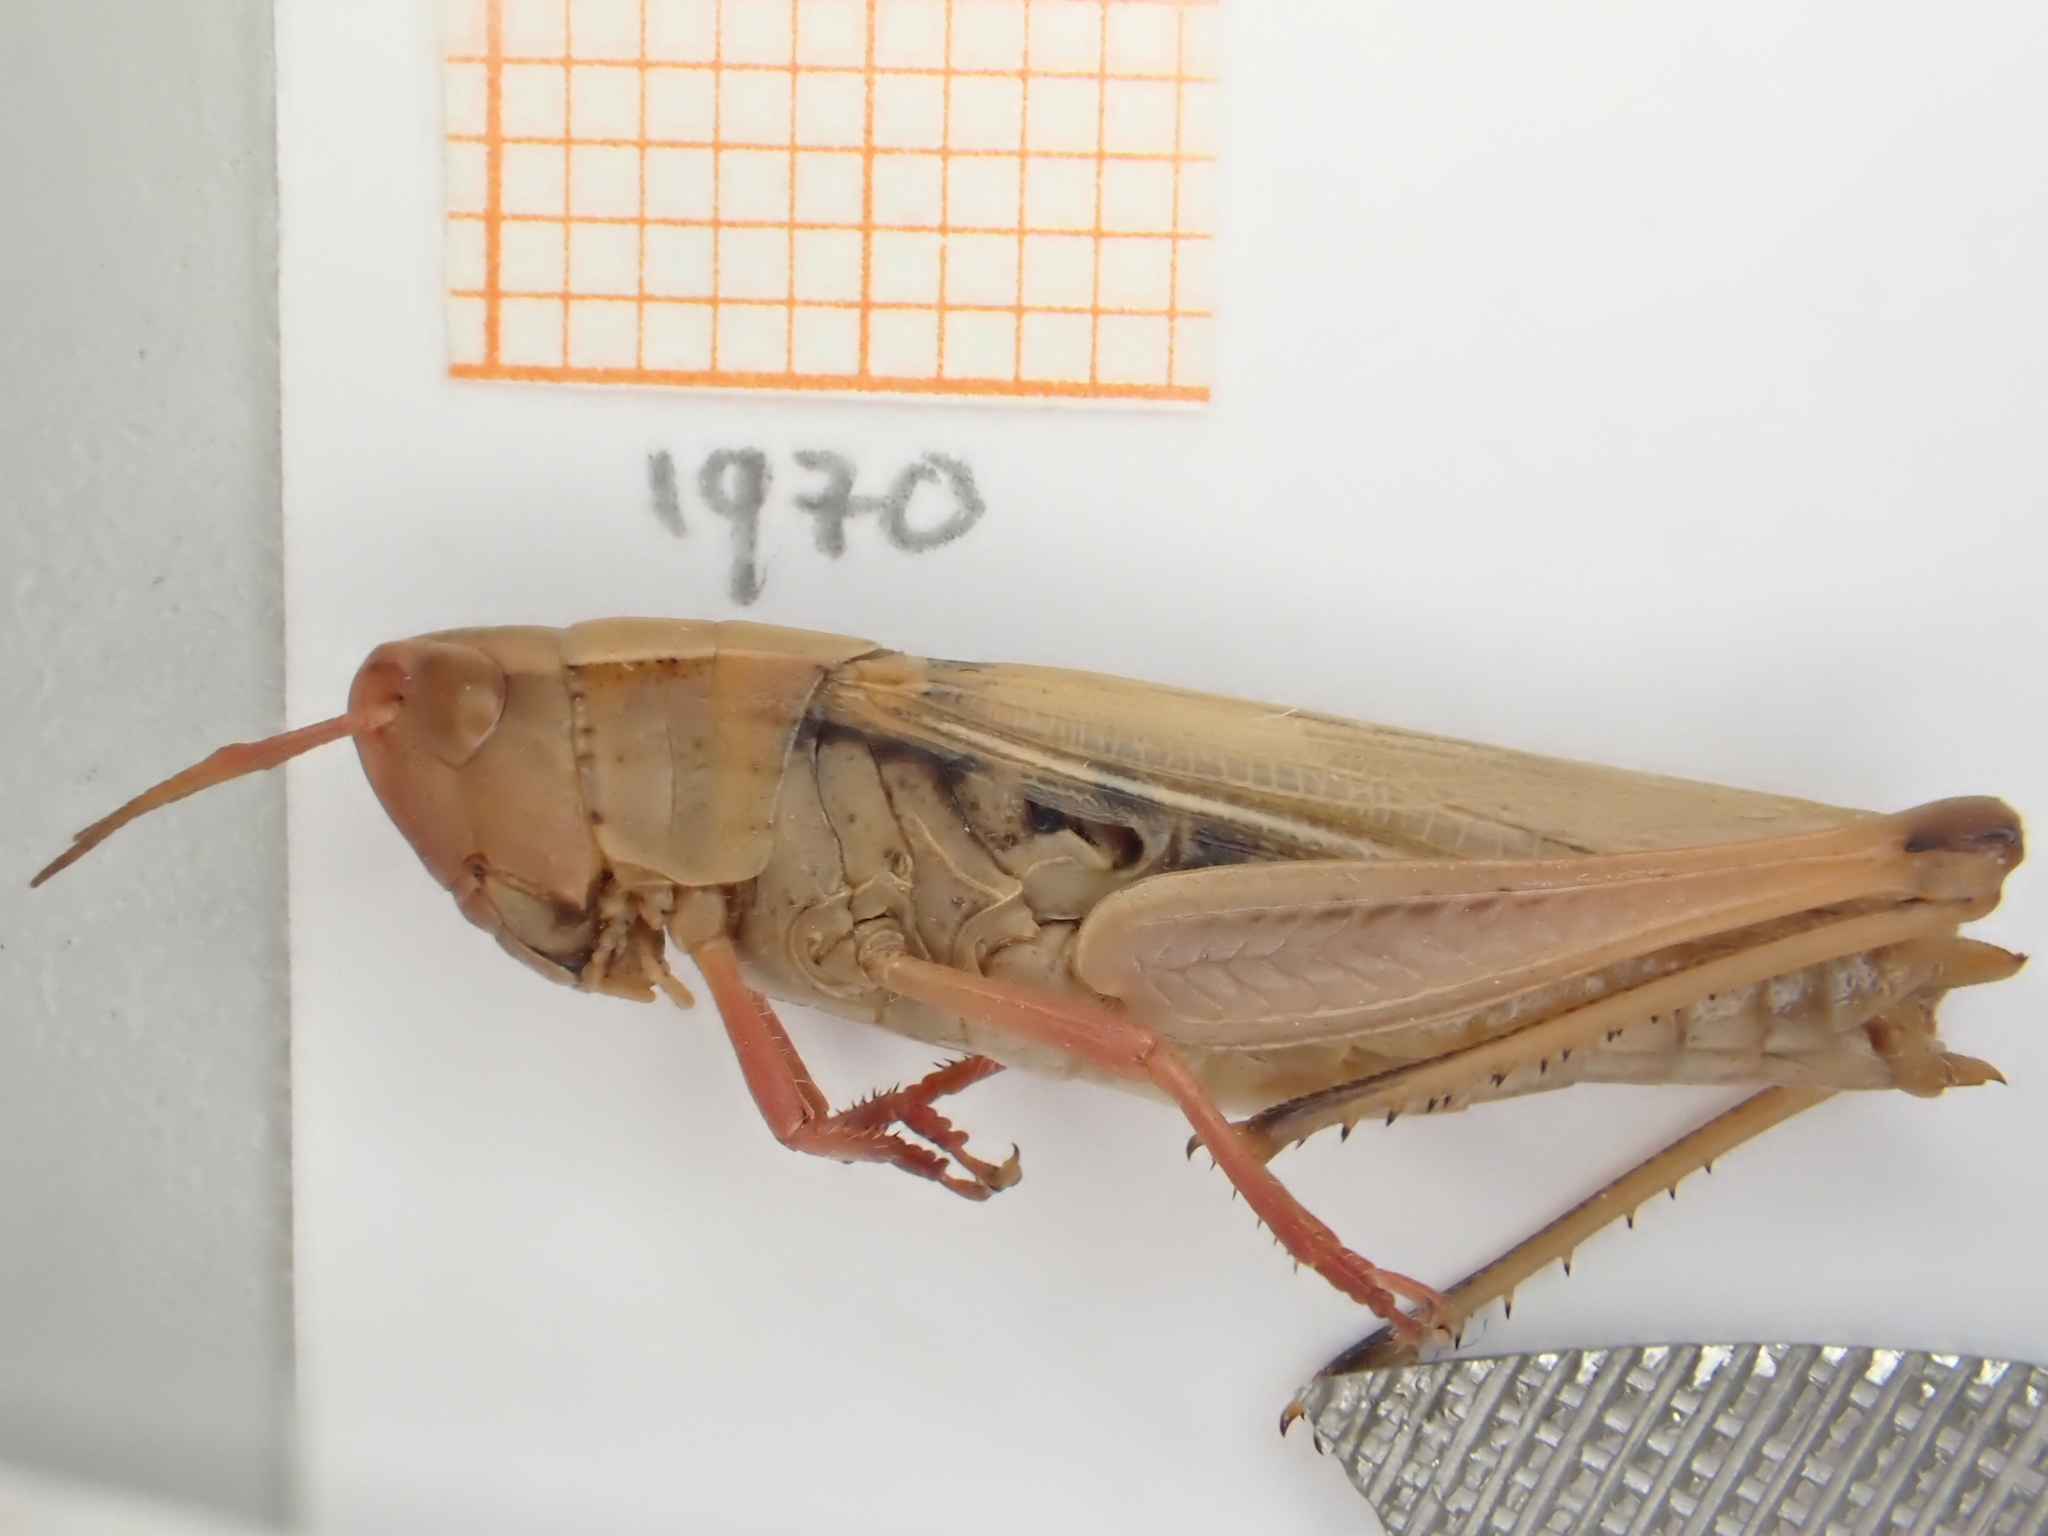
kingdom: Animalia
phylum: Arthropoda
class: Insecta
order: Orthoptera
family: Acrididae
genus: Chorthippus
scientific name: Chorthippus albomarginatus
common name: Lesser marsh grasshopper
